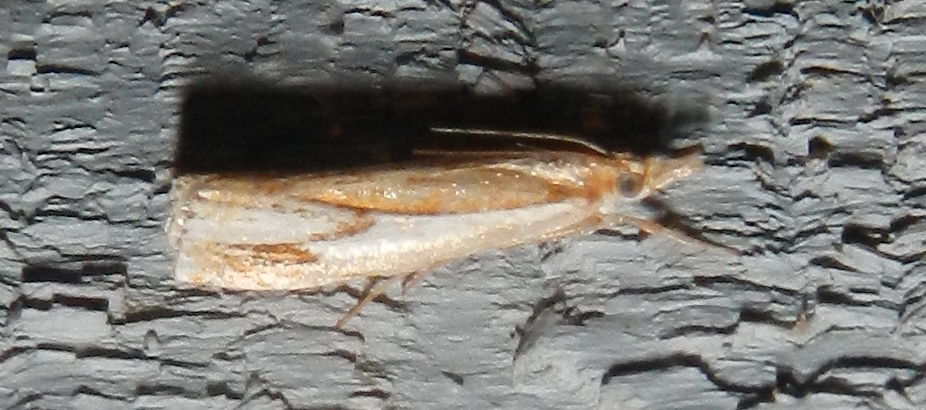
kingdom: Animalia
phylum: Arthropoda
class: Insecta
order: Lepidoptera
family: Crambidae
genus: Crambus
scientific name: Crambus agitatellus
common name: Double-banded grass-veneer
